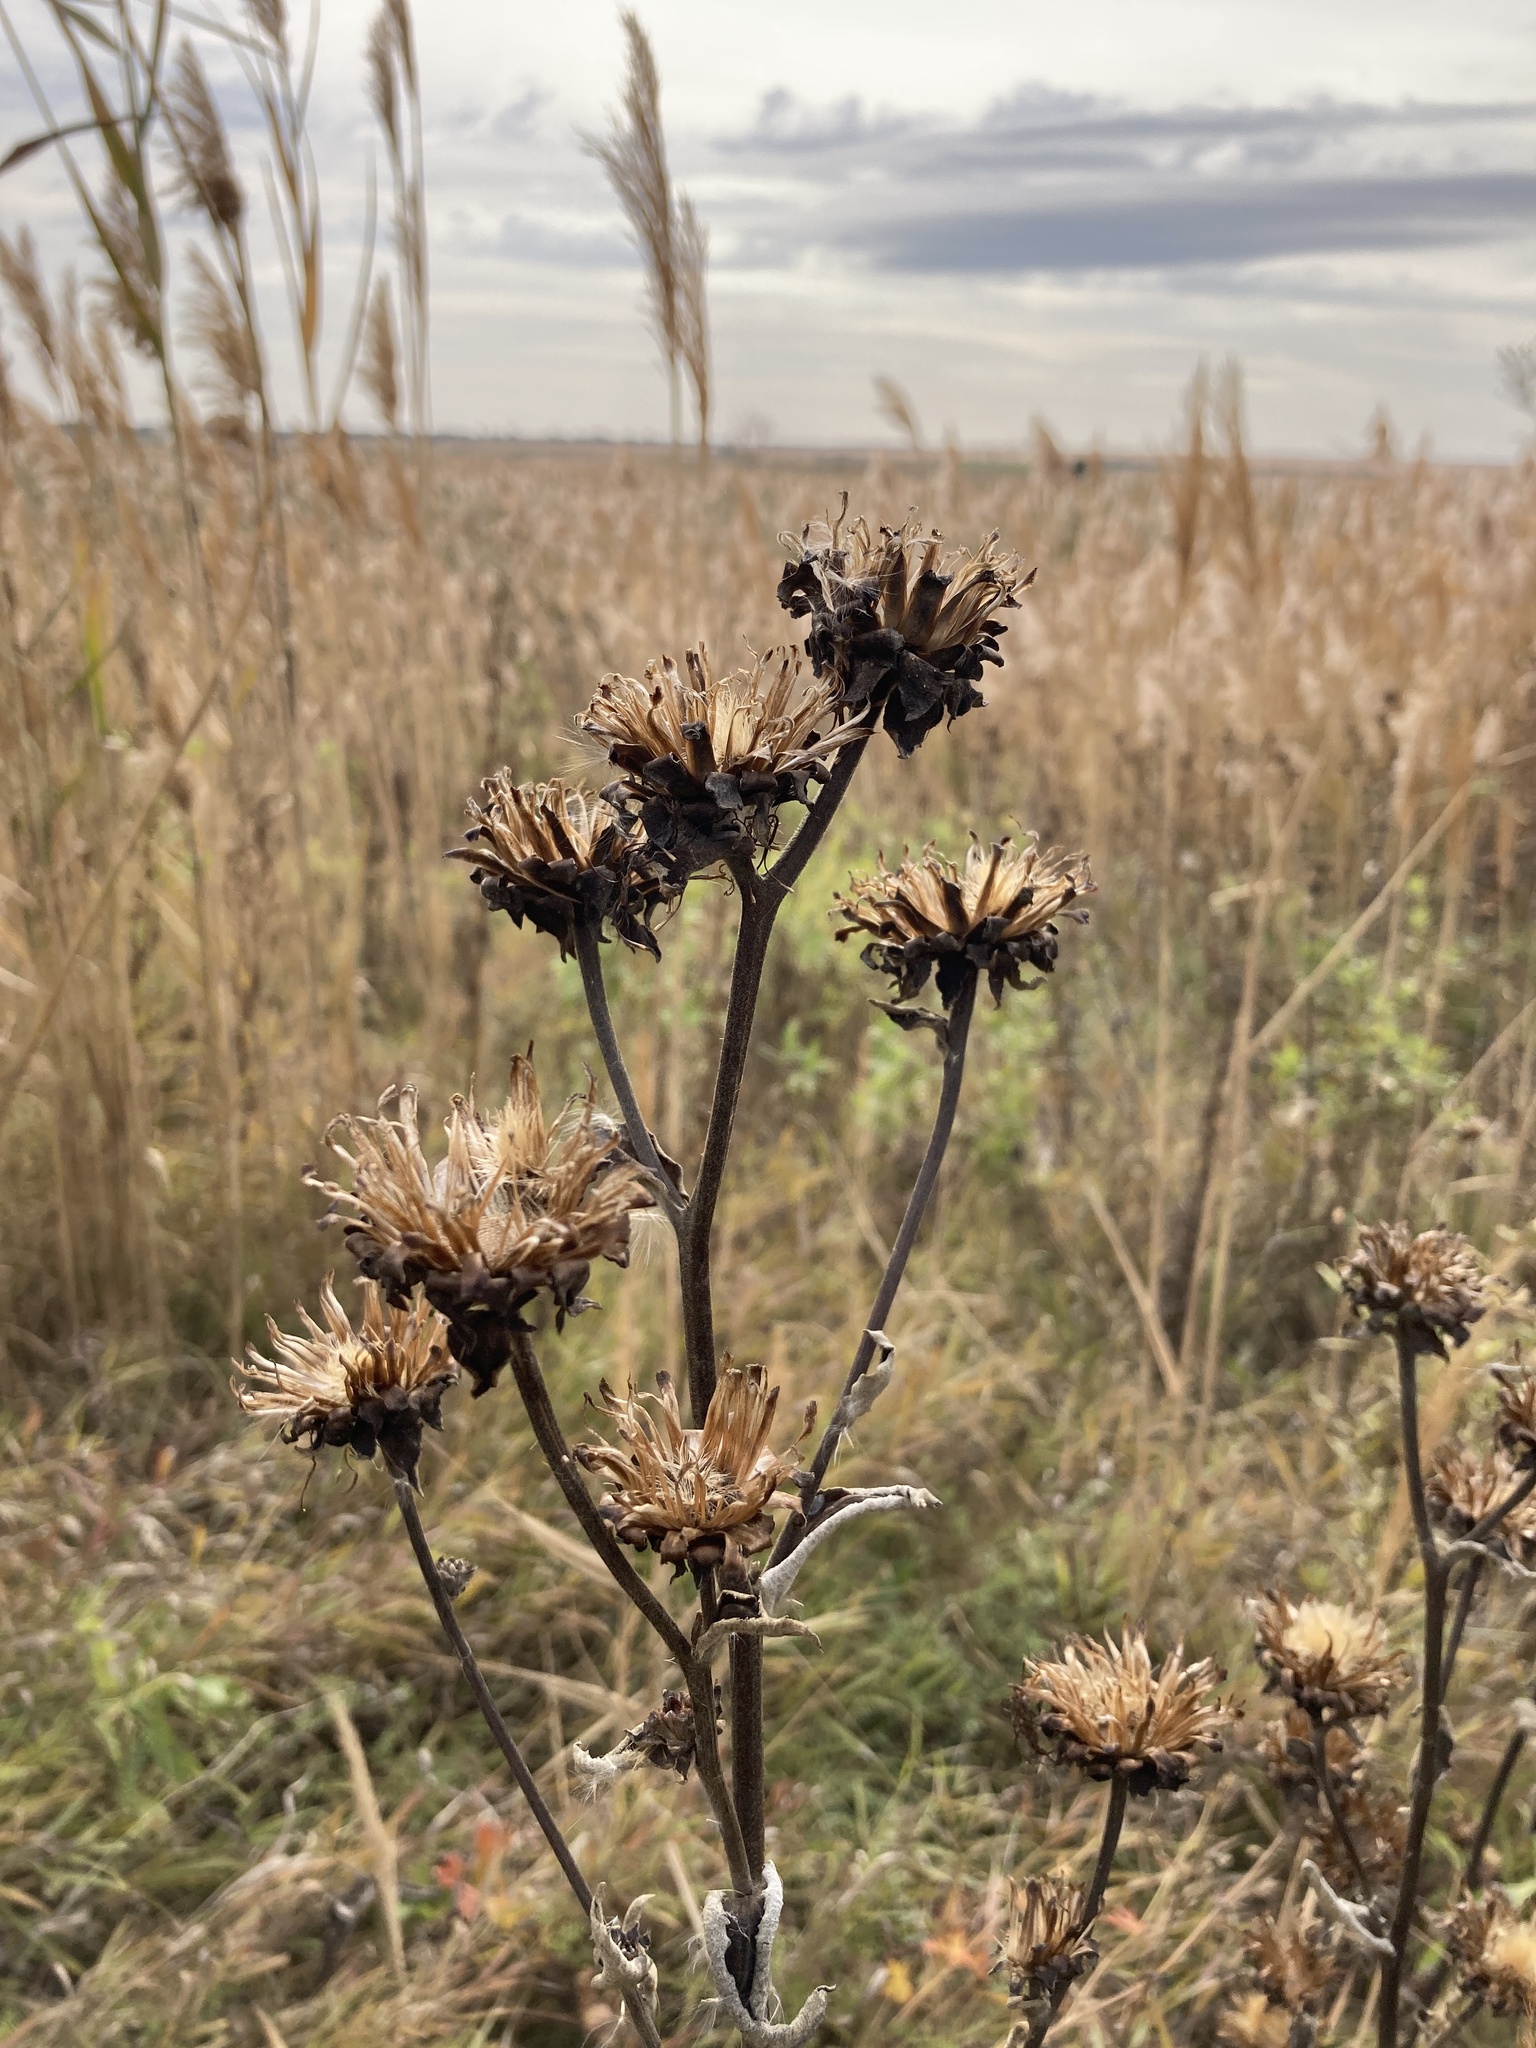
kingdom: Plantae
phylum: Tracheophyta
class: Magnoliopsida
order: Asterales
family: Asteraceae
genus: Inula
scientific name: Inula helenium
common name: Elecampane
